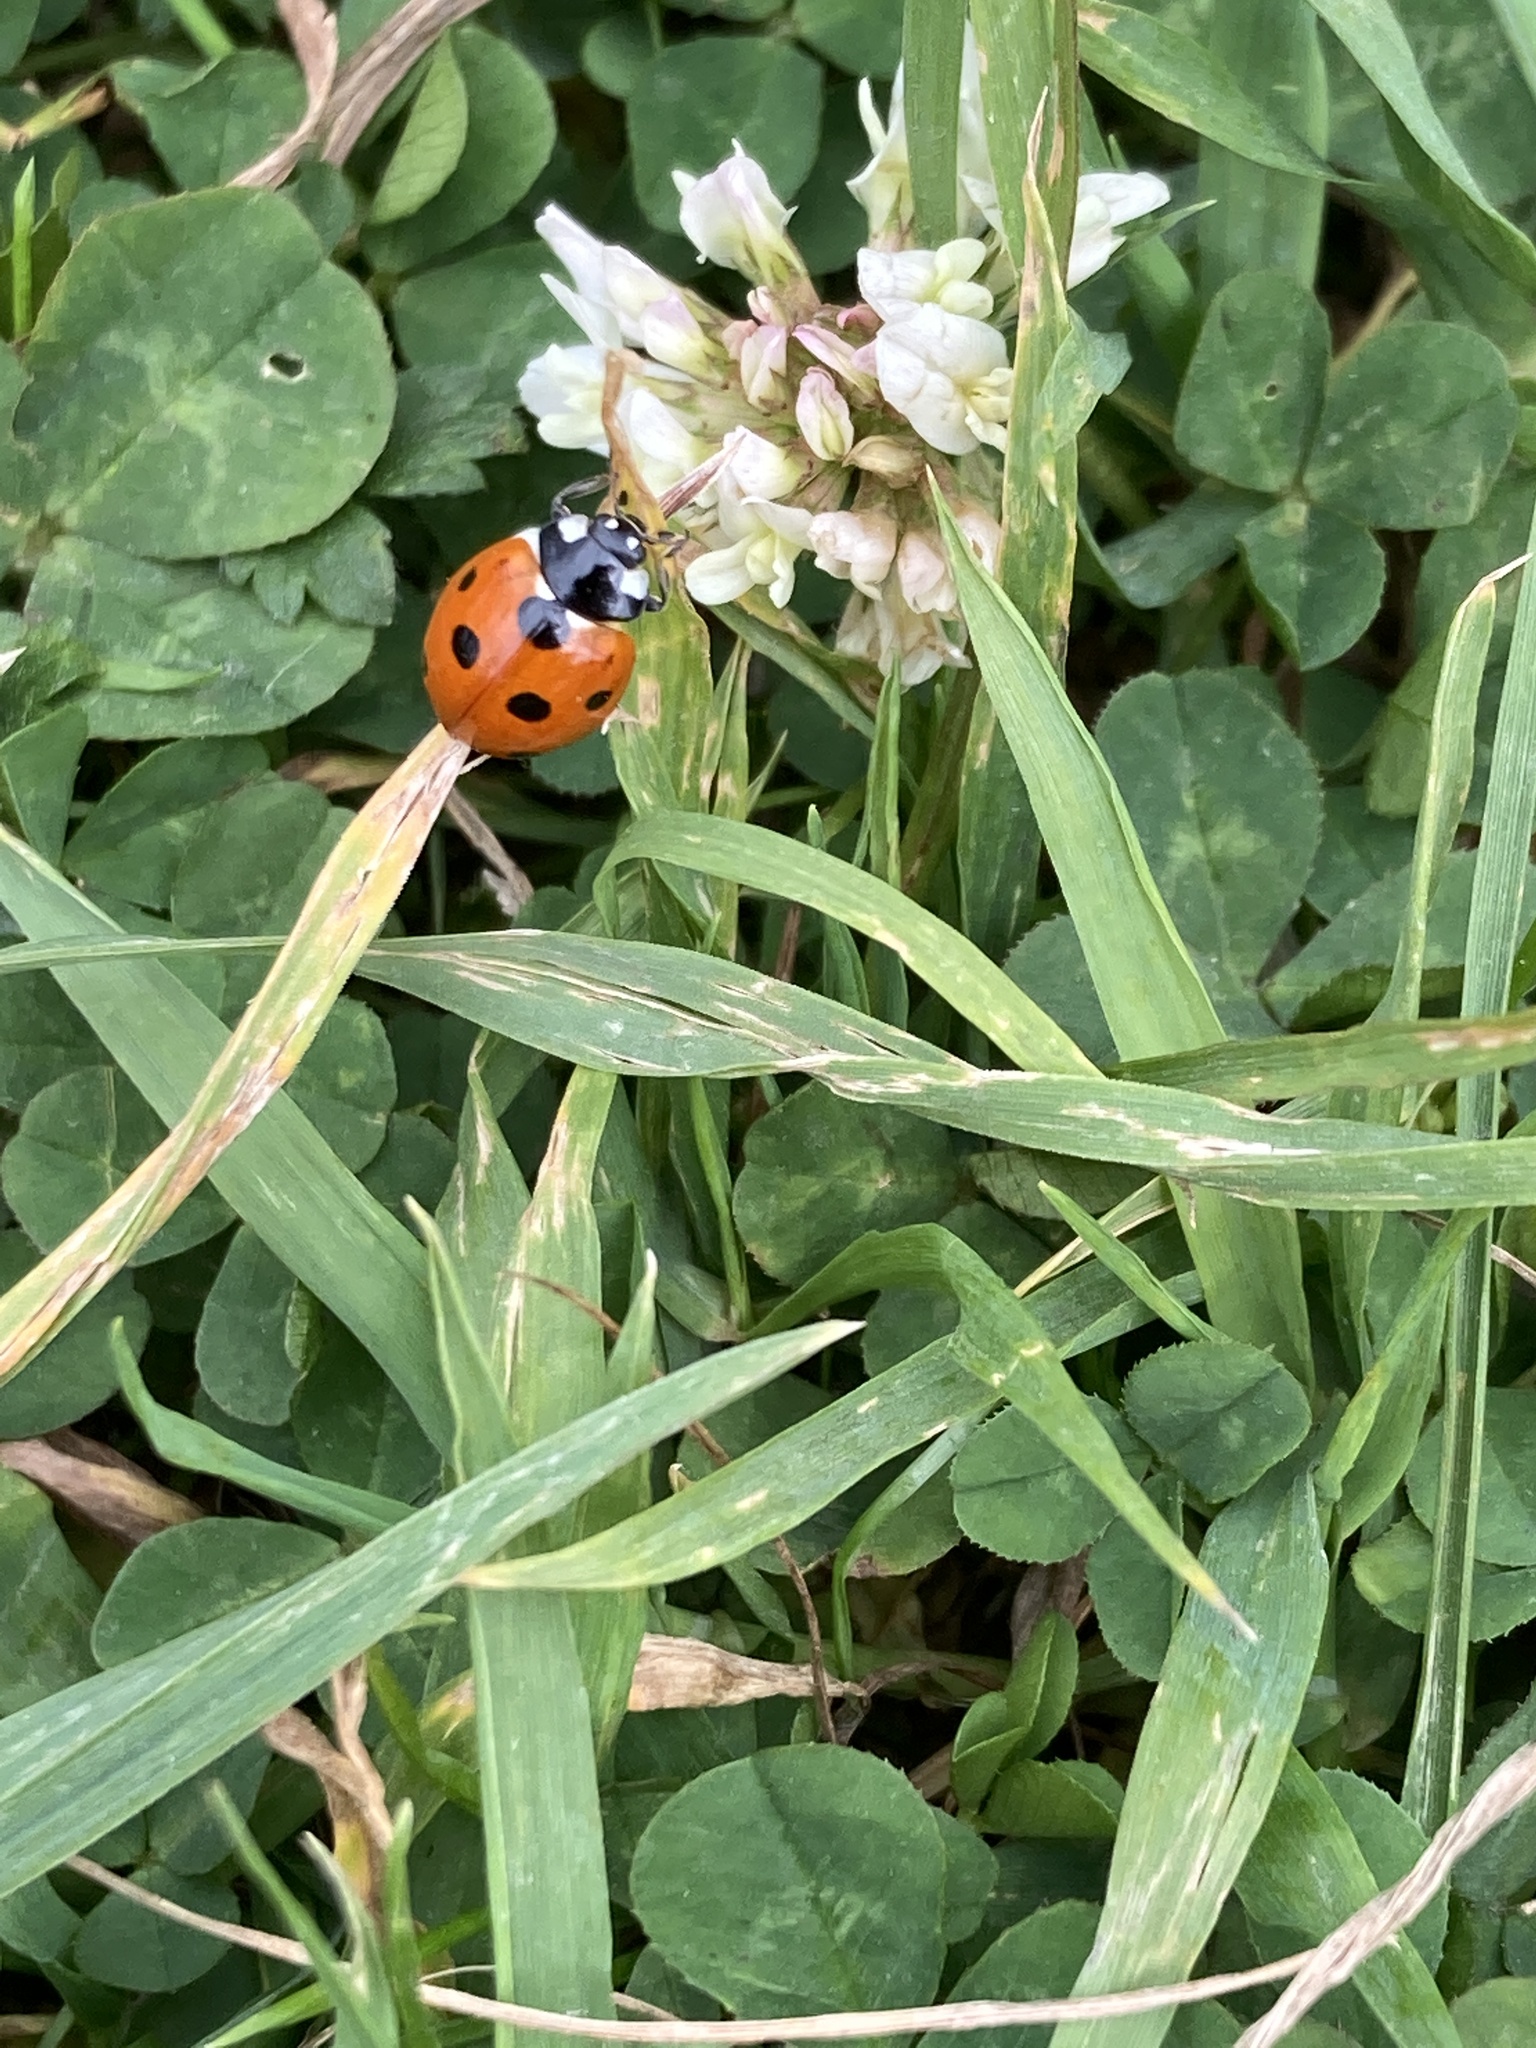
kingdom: Animalia
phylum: Arthropoda
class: Insecta
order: Coleoptera
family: Coccinellidae
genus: Coccinella
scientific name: Coccinella septempunctata
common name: Sevenspotted lady beetle
